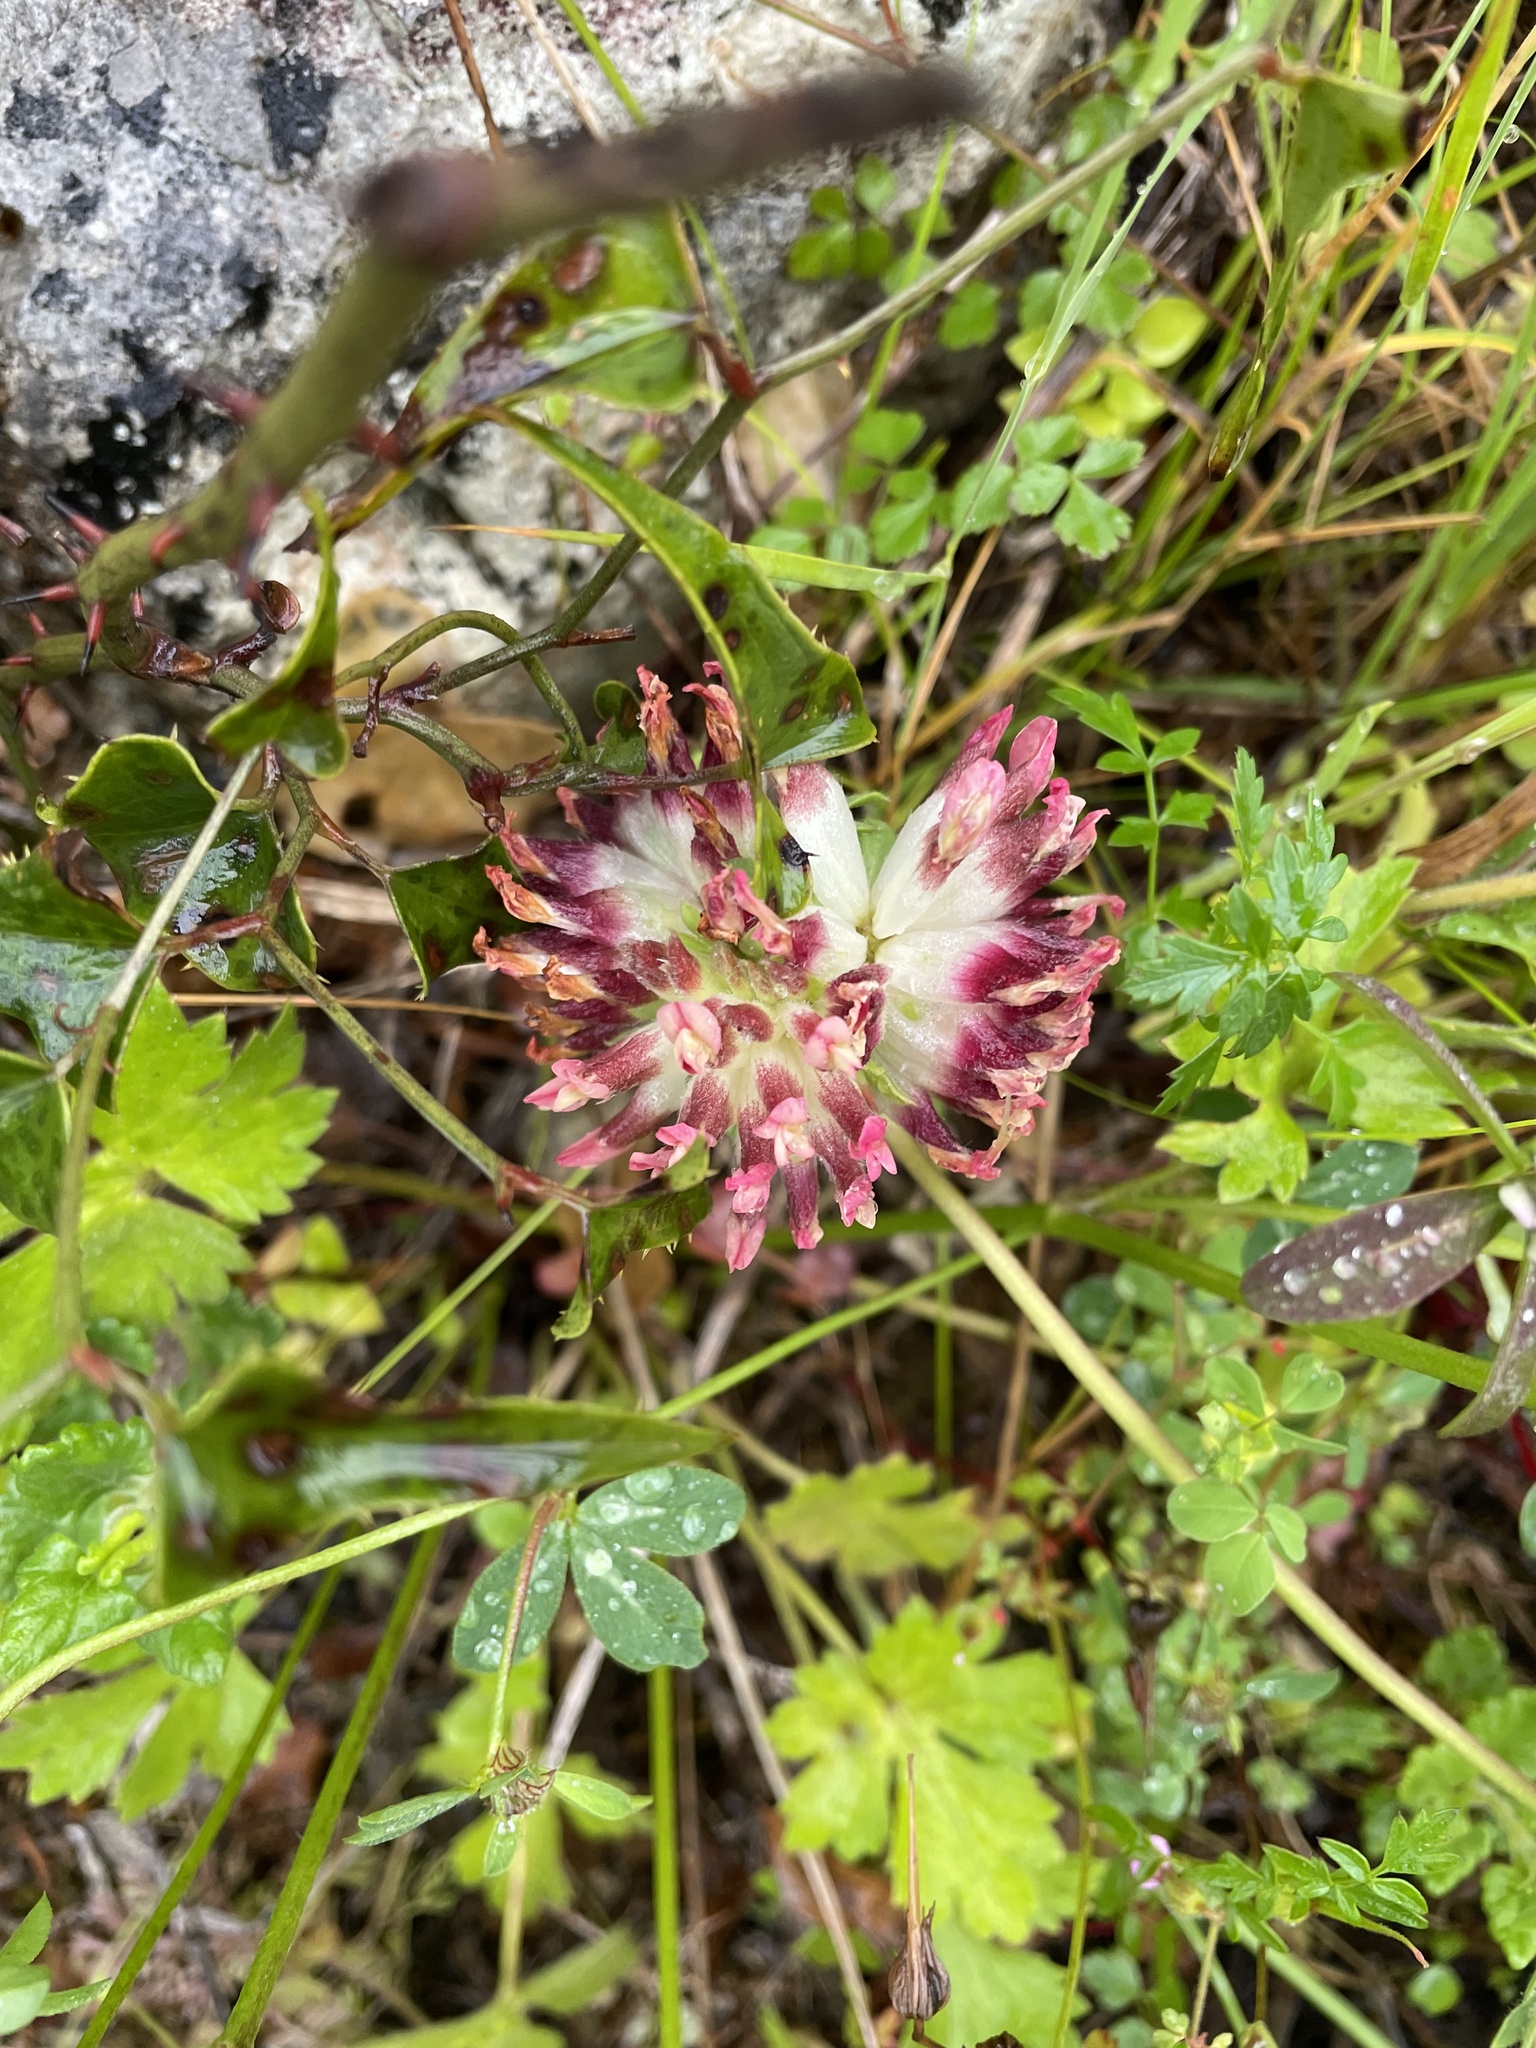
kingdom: Plantae
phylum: Tracheophyta
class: Magnoliopsida
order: Fabales
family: Fabaceae
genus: Anthyllis
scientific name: Anthyllis vulneraria
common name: Kidney vetch
